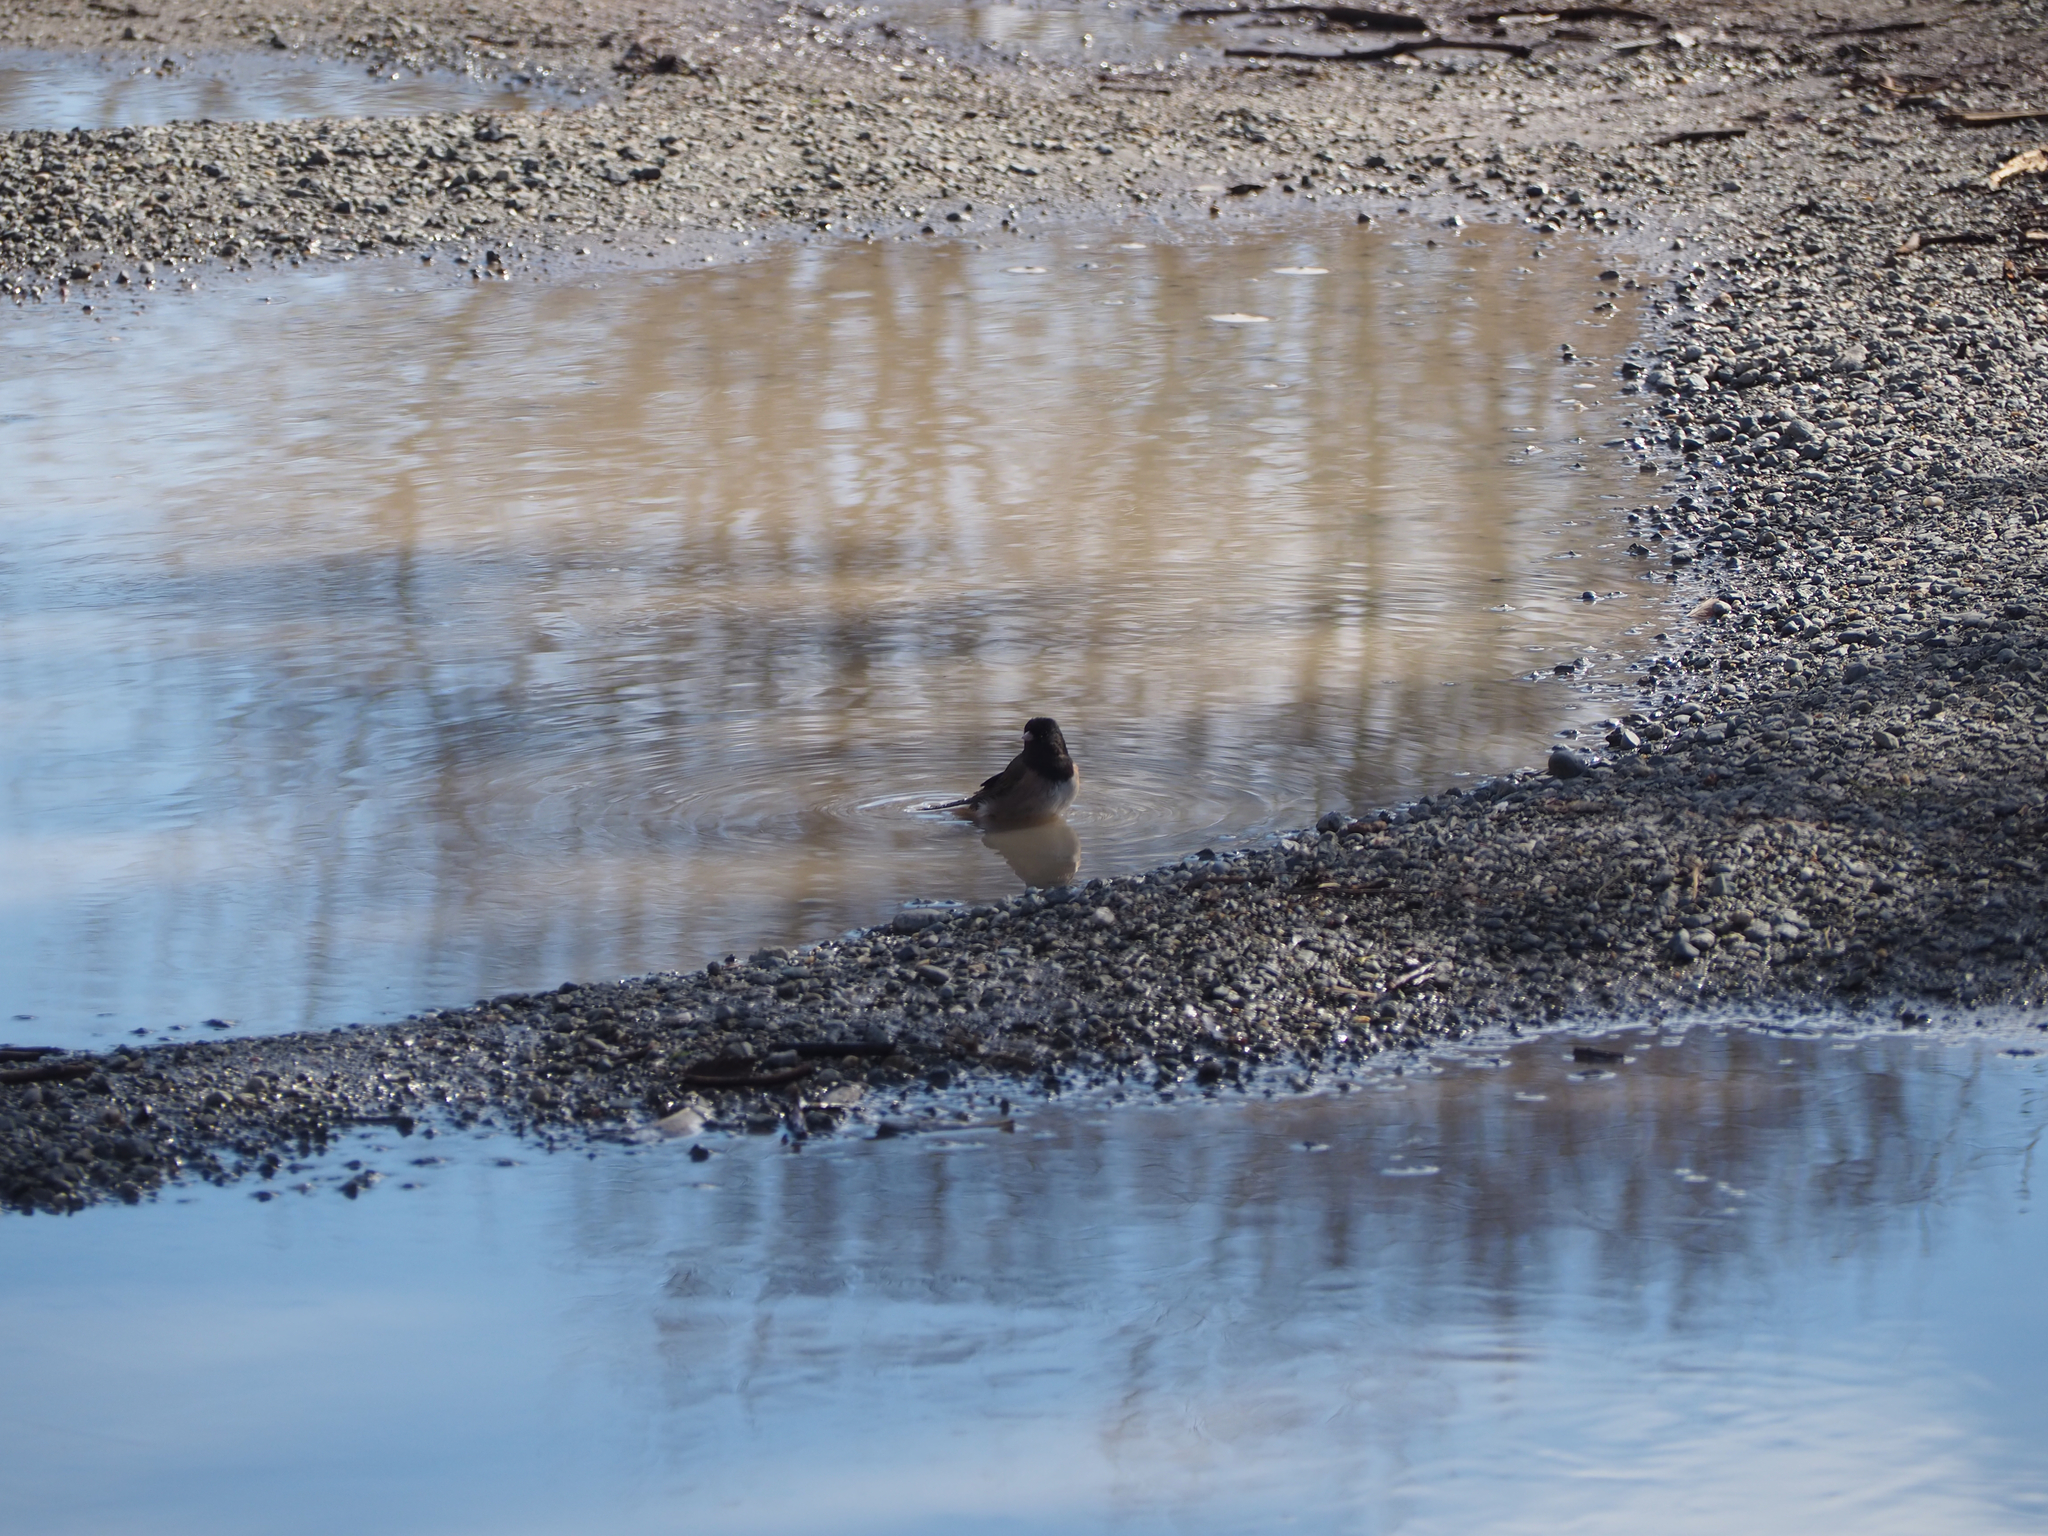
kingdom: Animalia
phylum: Chordata
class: Aves
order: Passeriformes
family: Passerellidae
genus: Junco
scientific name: Junco hyemalis
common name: Dark-eyed junco
